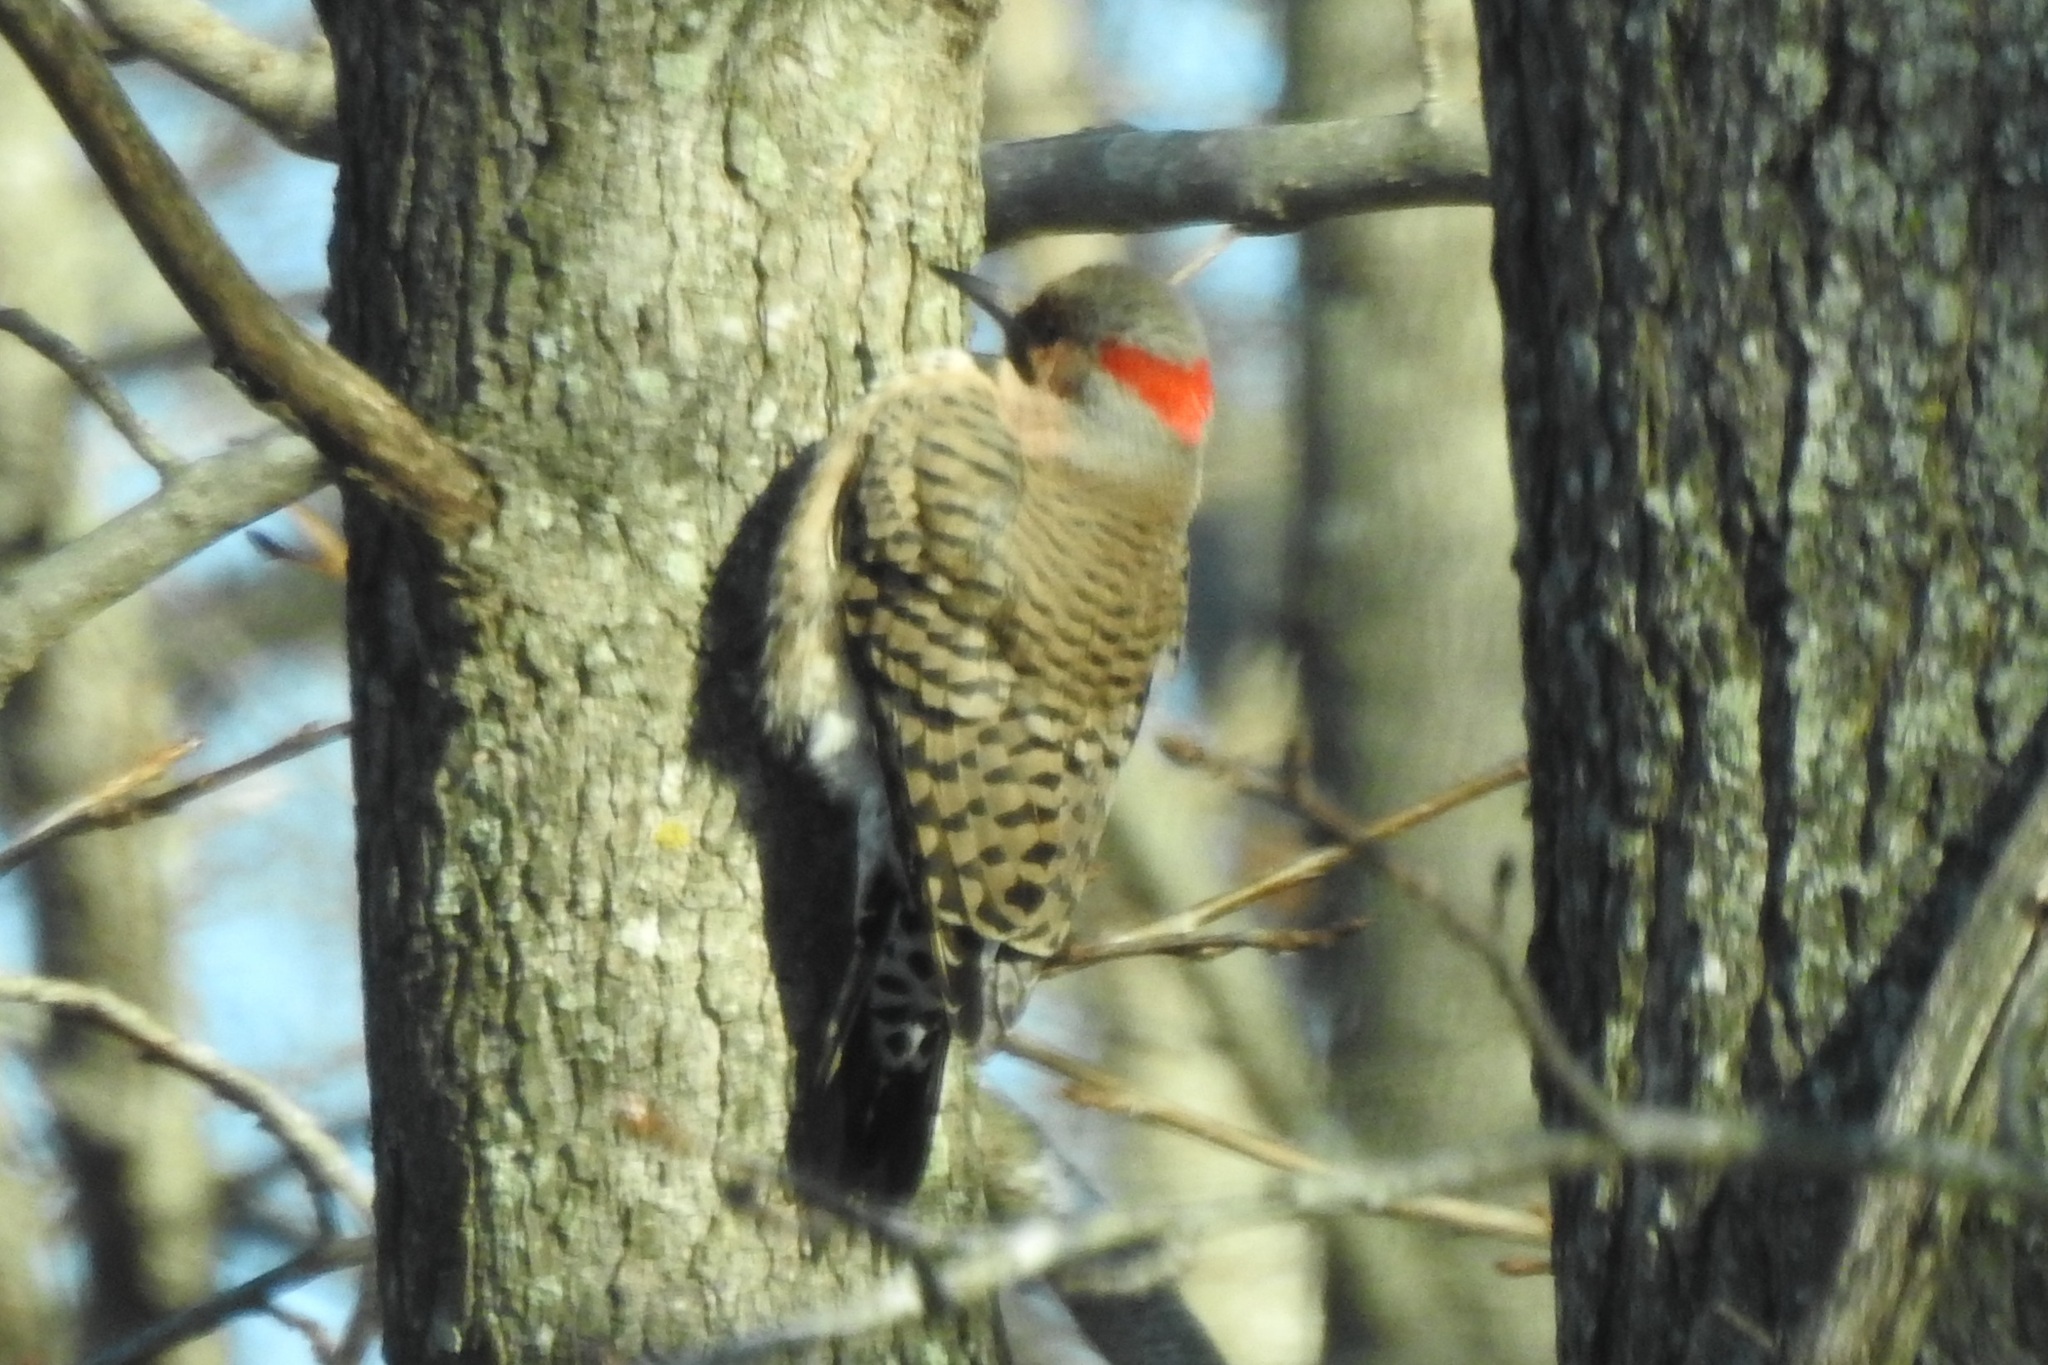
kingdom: Animalia
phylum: Chordata
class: Aves
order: Piciformes
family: Picidae
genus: Colaptes
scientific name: Colaptes auratus
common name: Northern flicker
